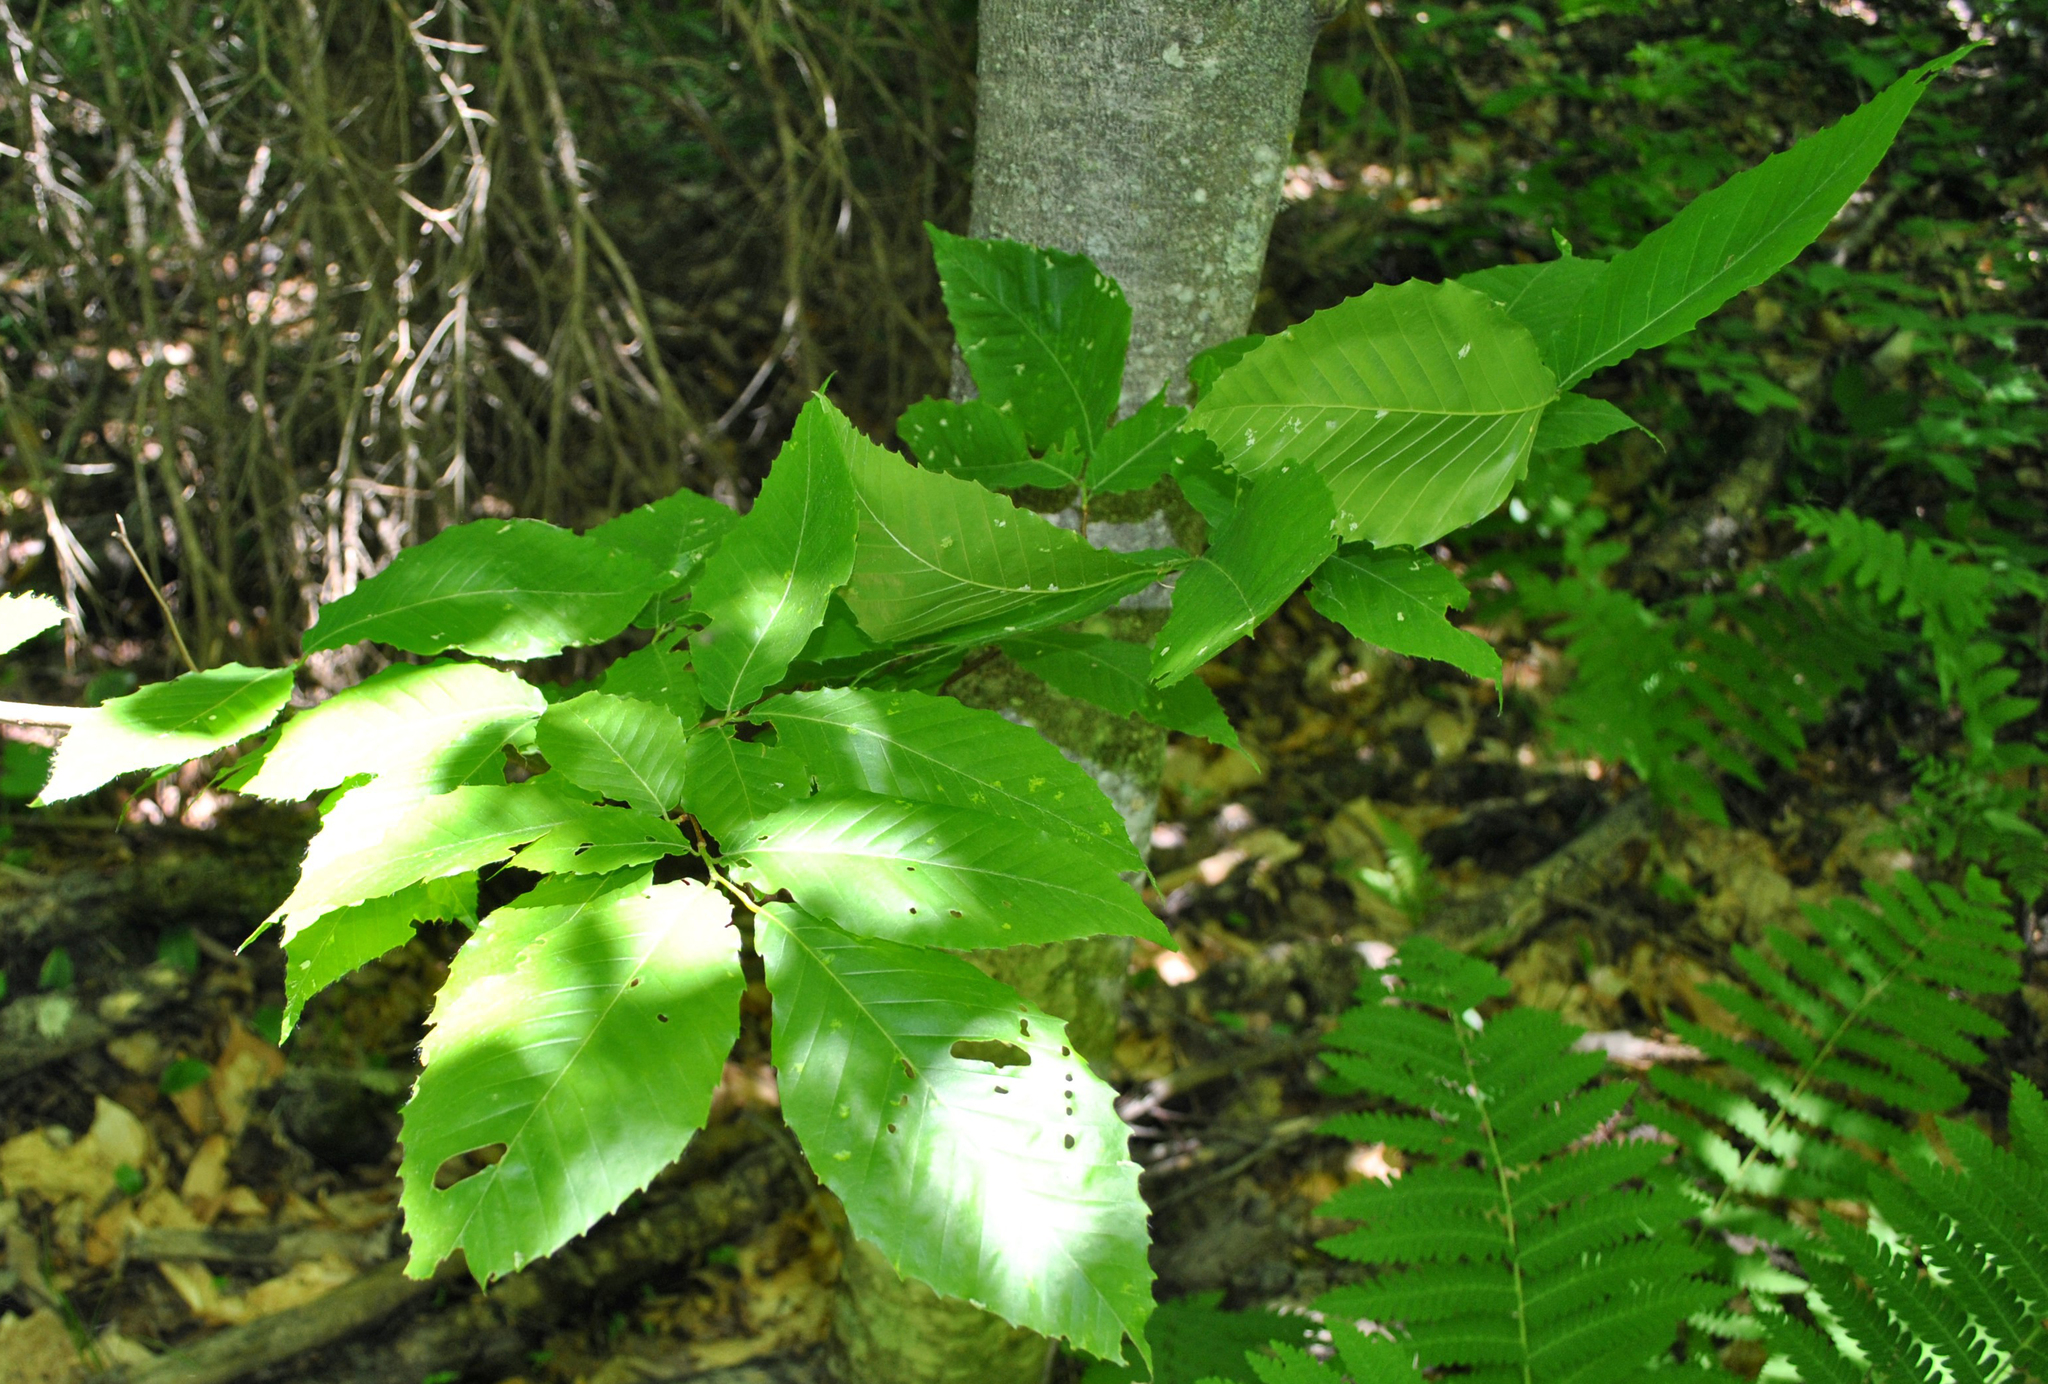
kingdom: Plantae
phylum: Tracheophyta
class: Magnoliopsida
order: Fagales
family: Fagaceae
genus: Fagus
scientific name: Fagus grandifolia
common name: American beech
